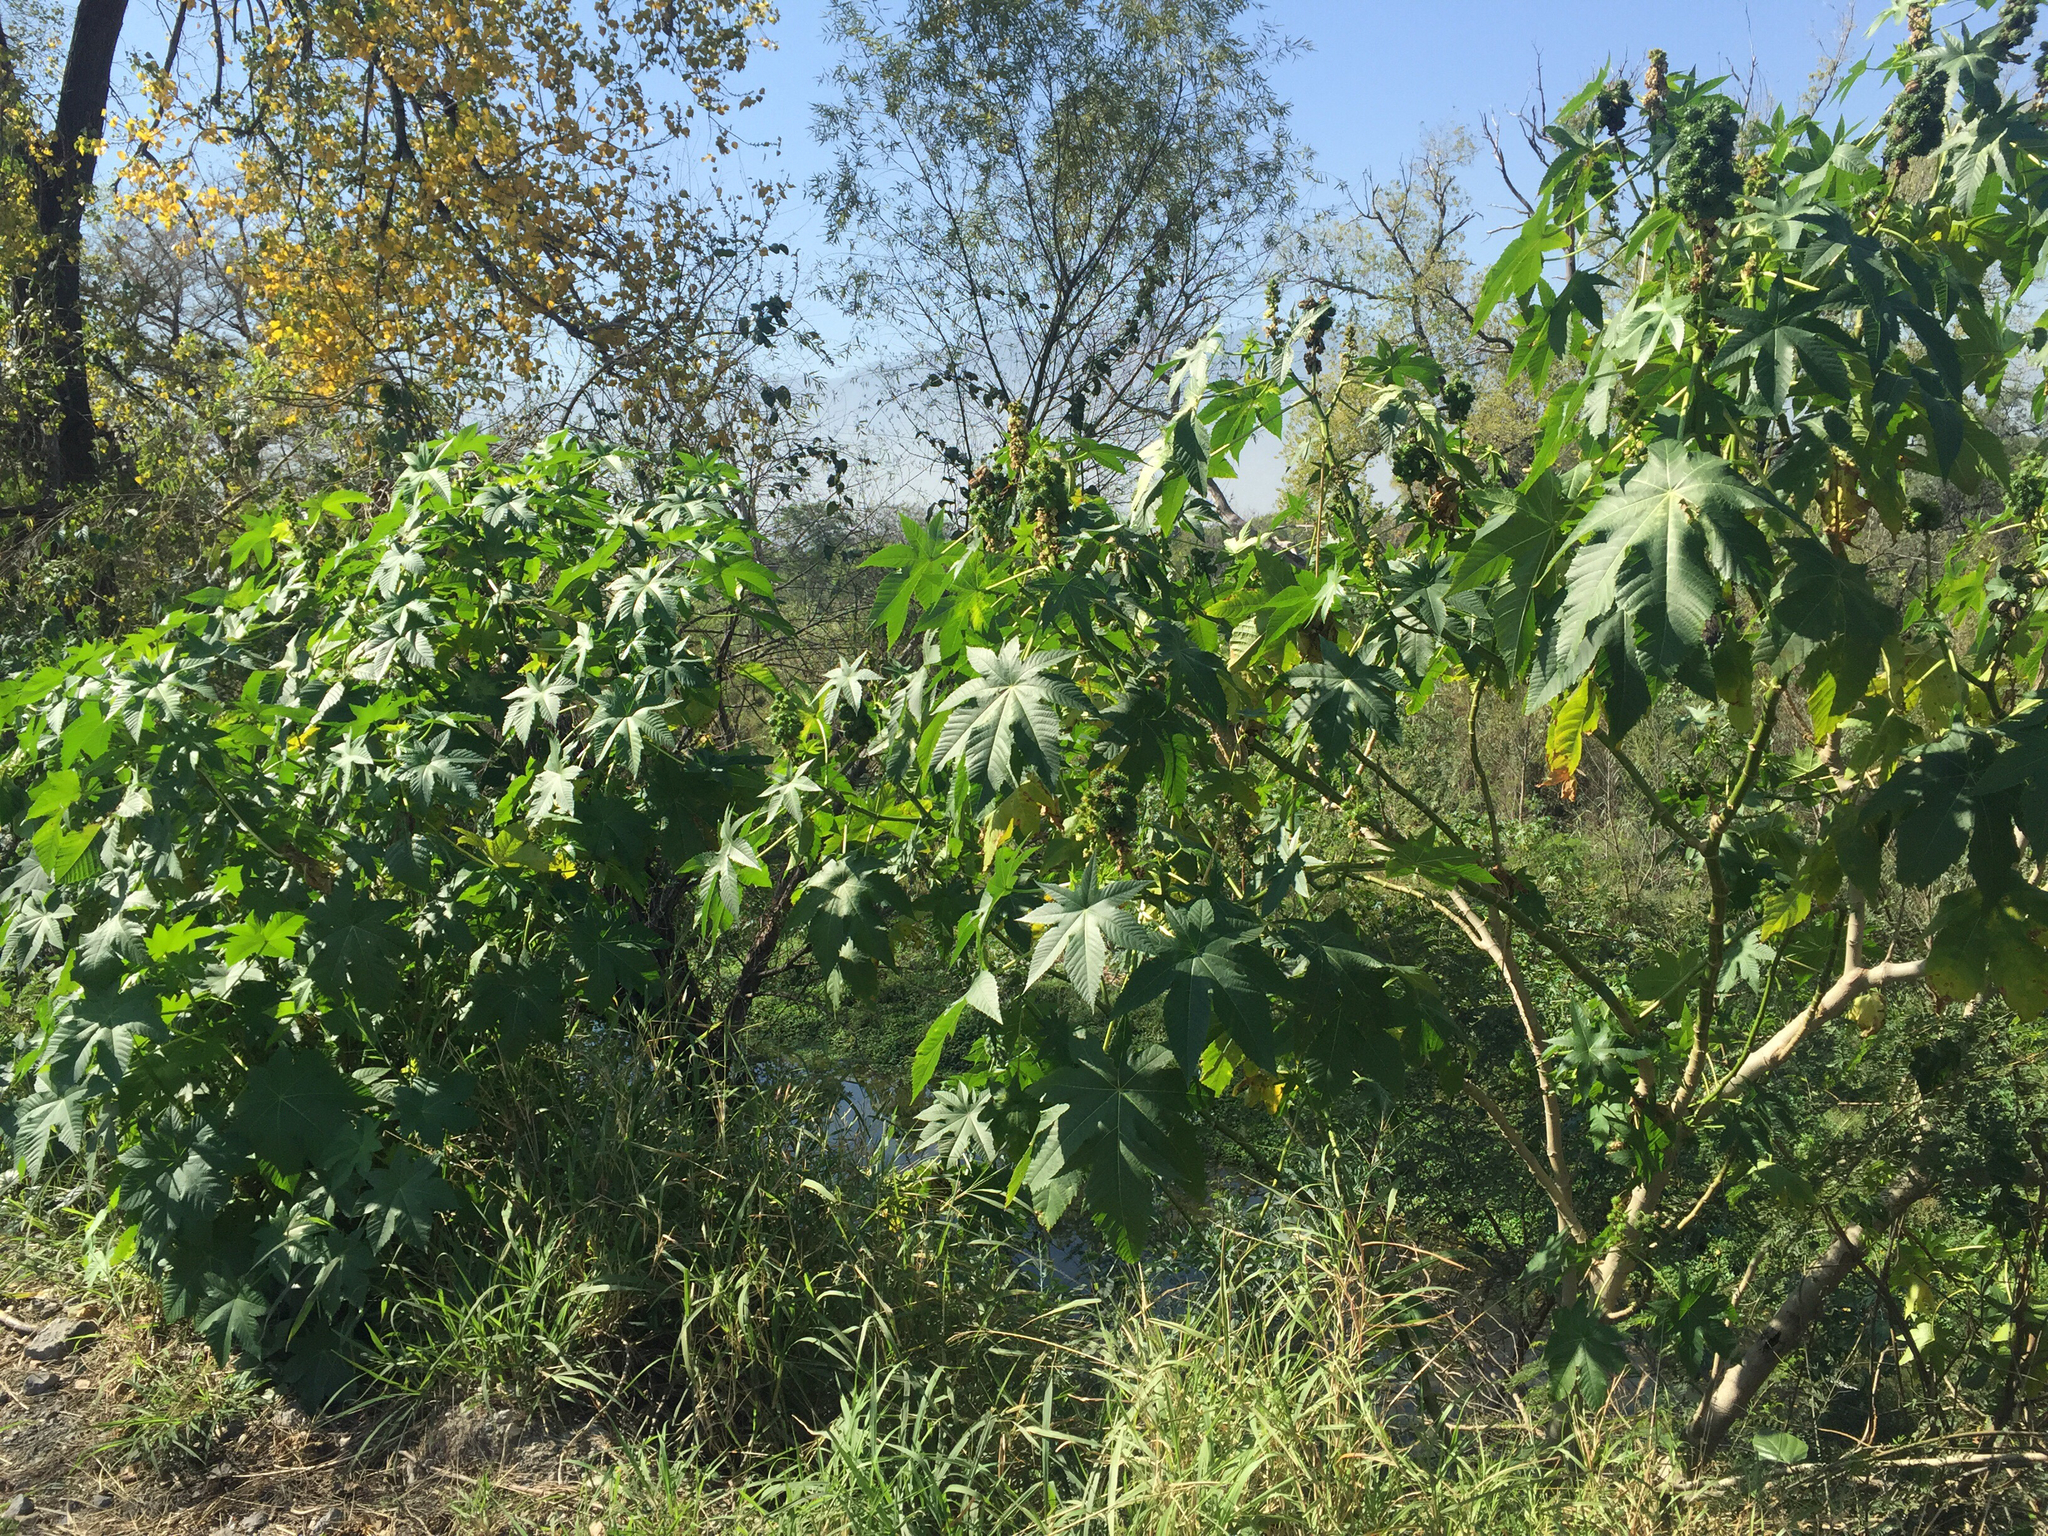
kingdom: Plantae
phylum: Tracheophyta
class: Magnoliopsida
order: Malpighiales
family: Euphorbiaceae
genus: Ricinus
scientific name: Ricinus communis
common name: Castor-oil-plant
